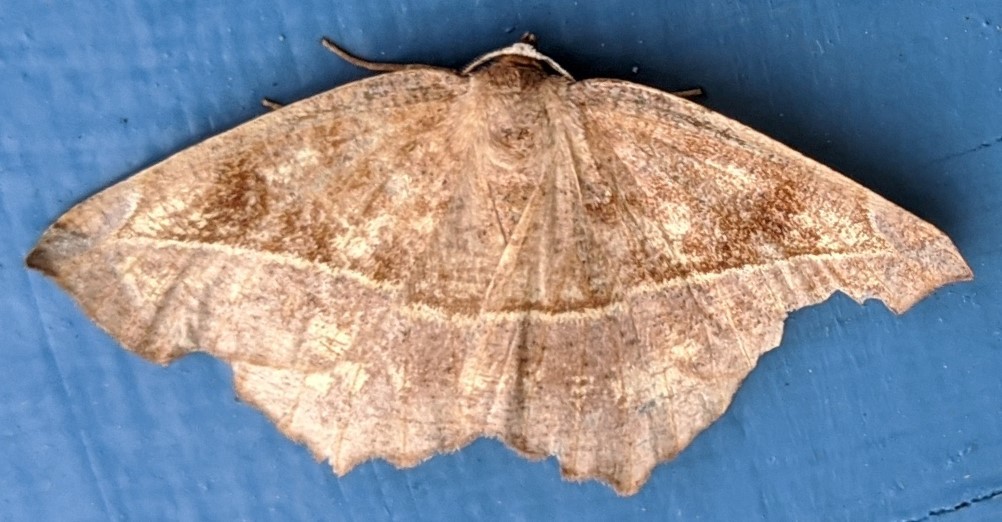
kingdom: Animalia
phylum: Arthropoda
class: Insecta
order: Lepidoptera
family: Geometridae
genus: Eutrapela
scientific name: Eutrapela clemataria
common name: Curved-toothed geometer
